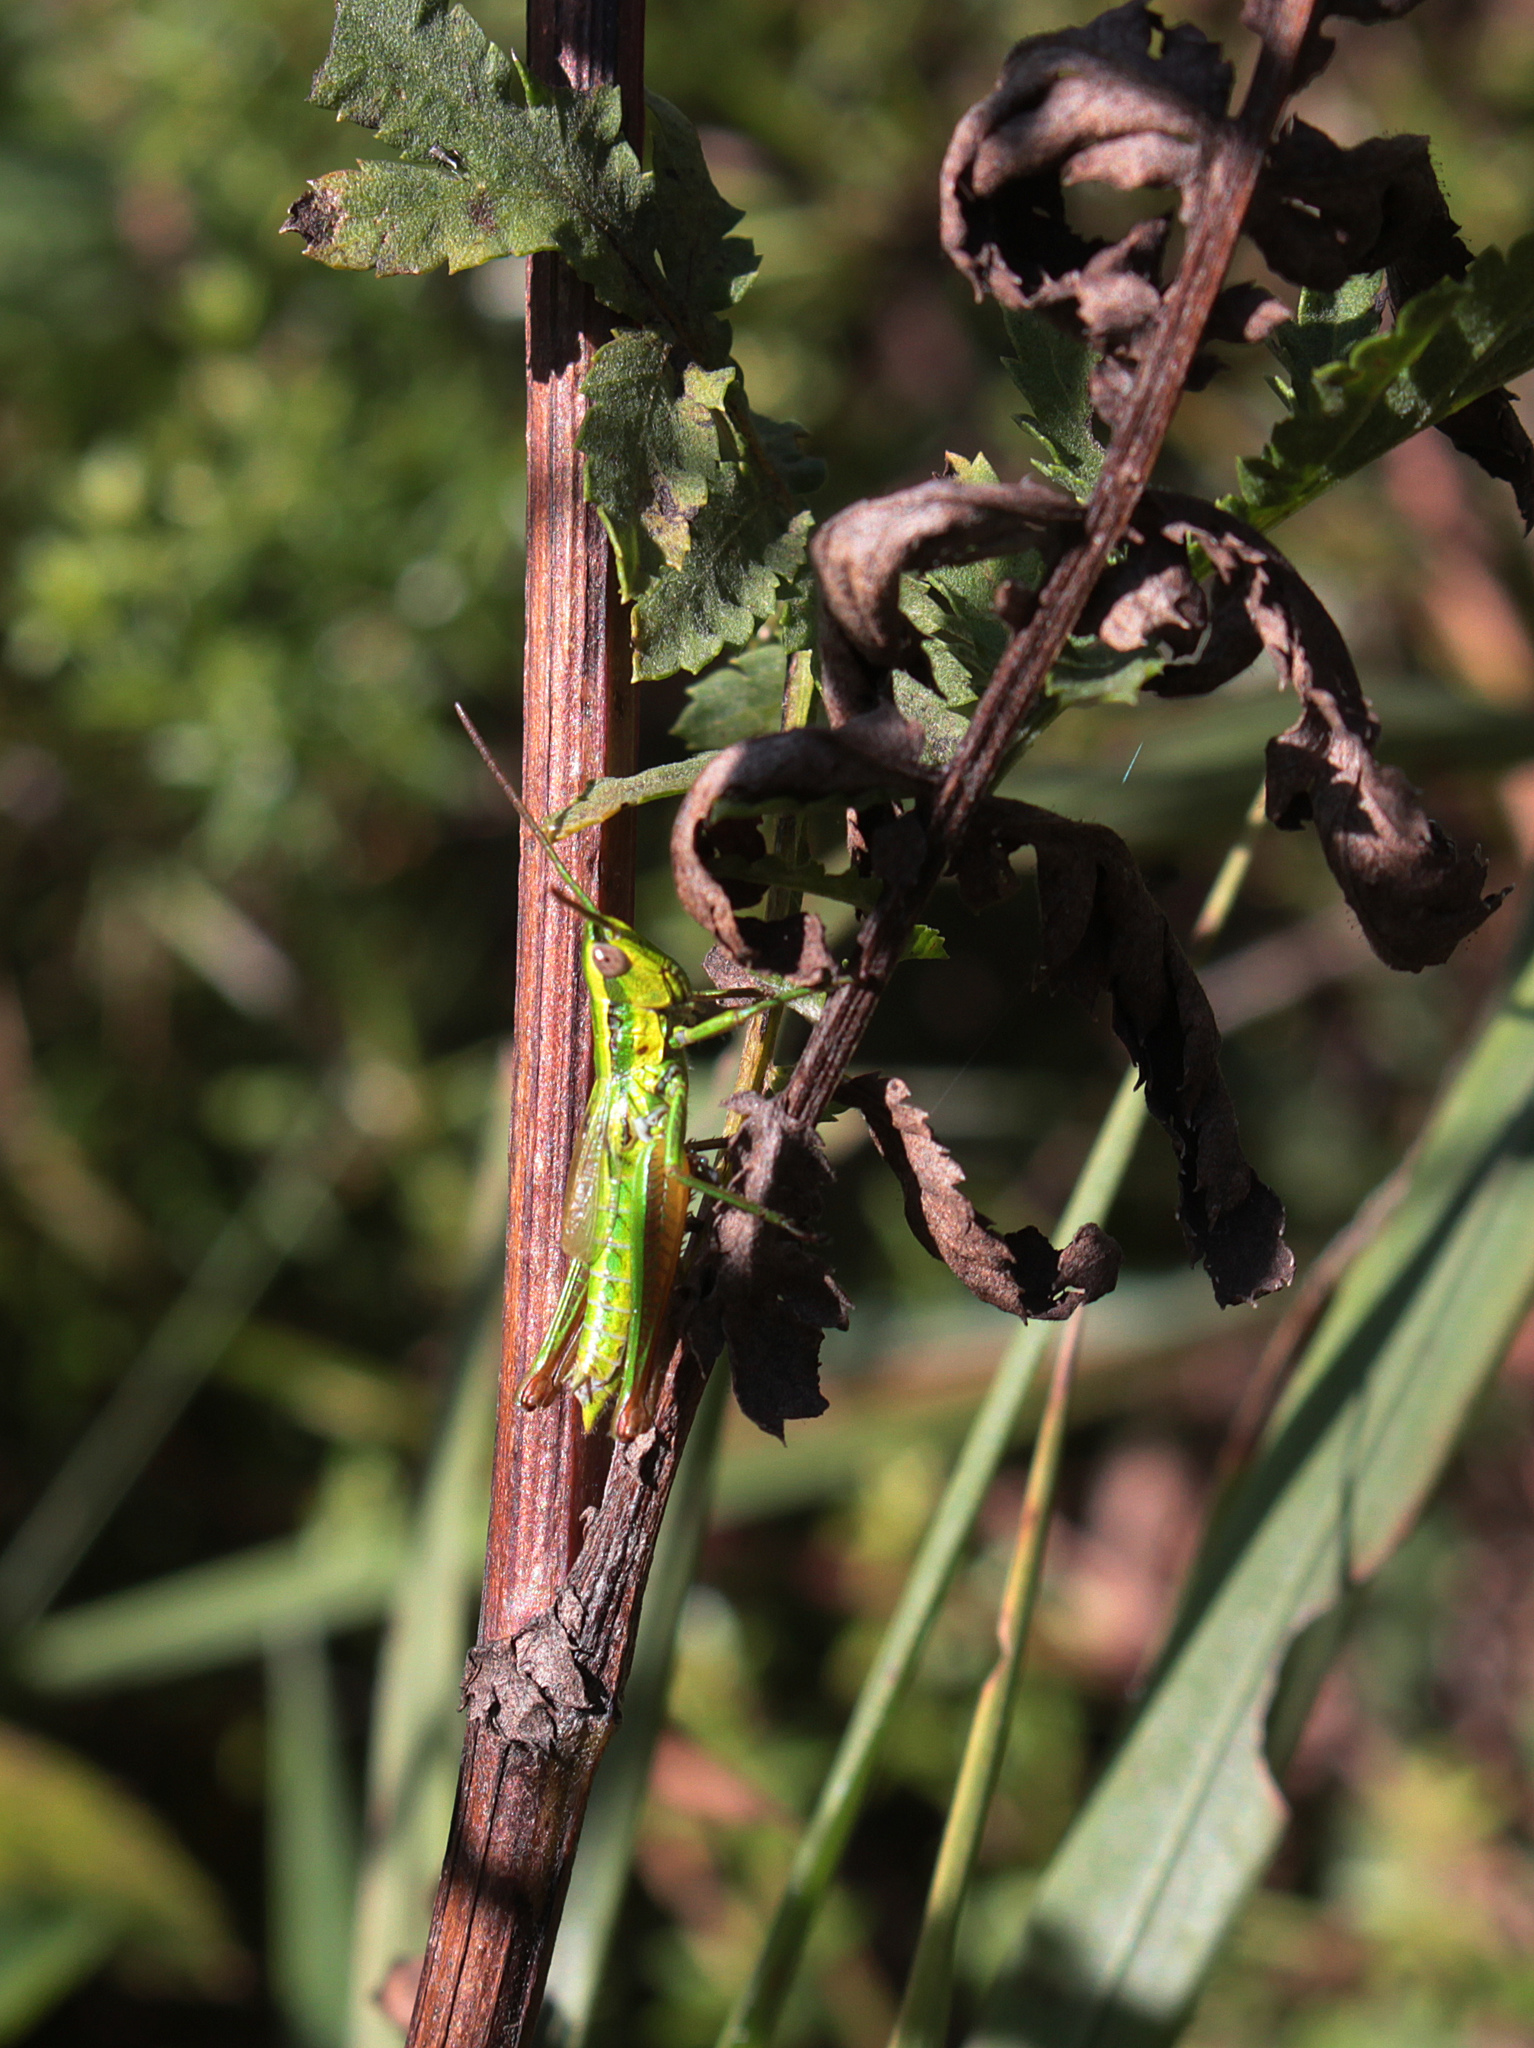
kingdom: Animalia
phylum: Arthropoda
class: Insecta
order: Orthoptera
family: Acrididae
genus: Euthystira
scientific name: Euthystira brachyptera
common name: Small gold grasshopper
